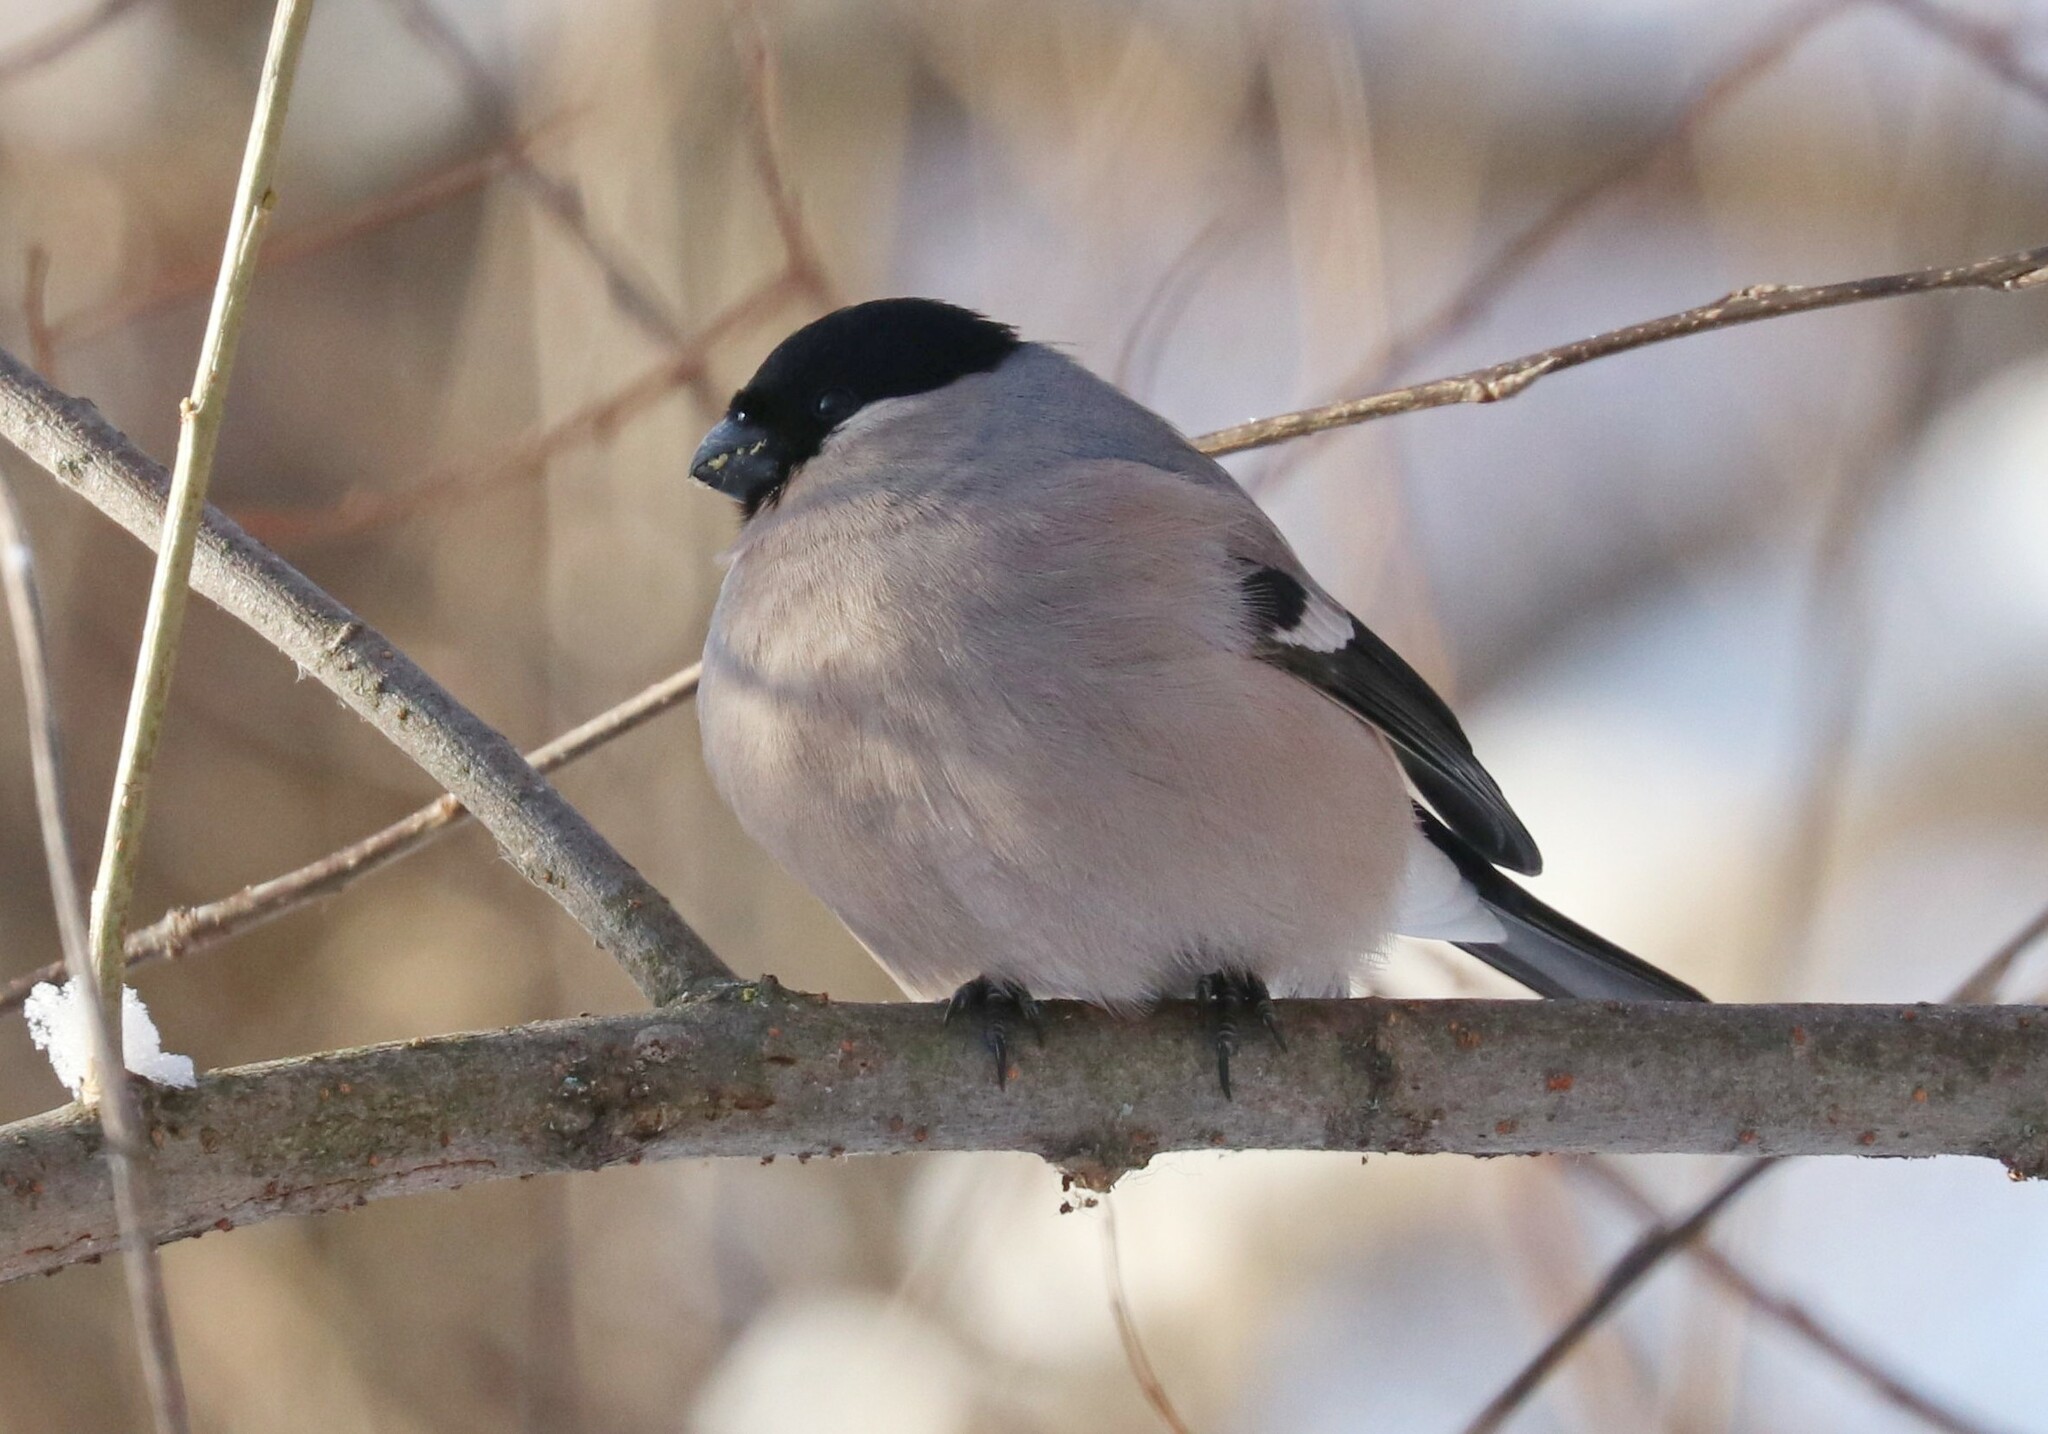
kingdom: Animalia
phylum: Chordata
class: Aves
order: Passeriformes
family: Fringillidae
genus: Pyrrhula
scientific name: Pyrrhula pyrrhula
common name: Eurasian bullfinch
